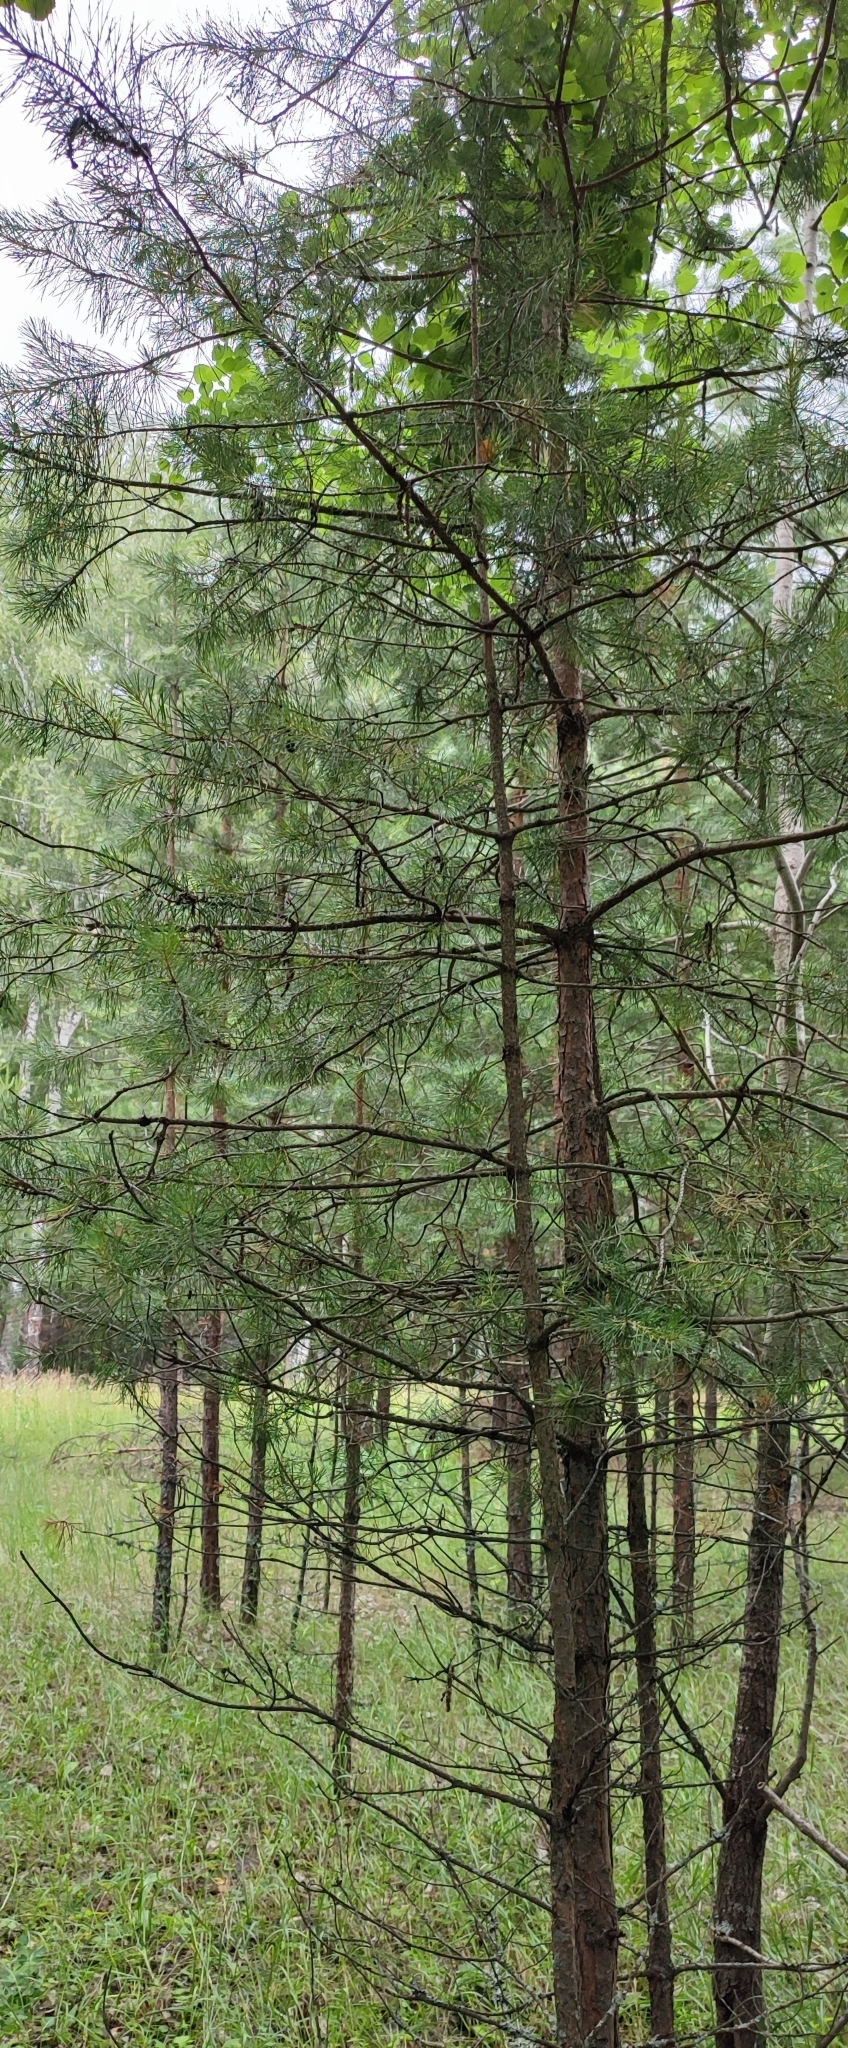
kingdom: Plantae
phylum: Tracheophyta
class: Pinopsida
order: Pinales
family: Pinaceae
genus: Pinus
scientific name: Pinus sylvestris
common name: Scots pine
